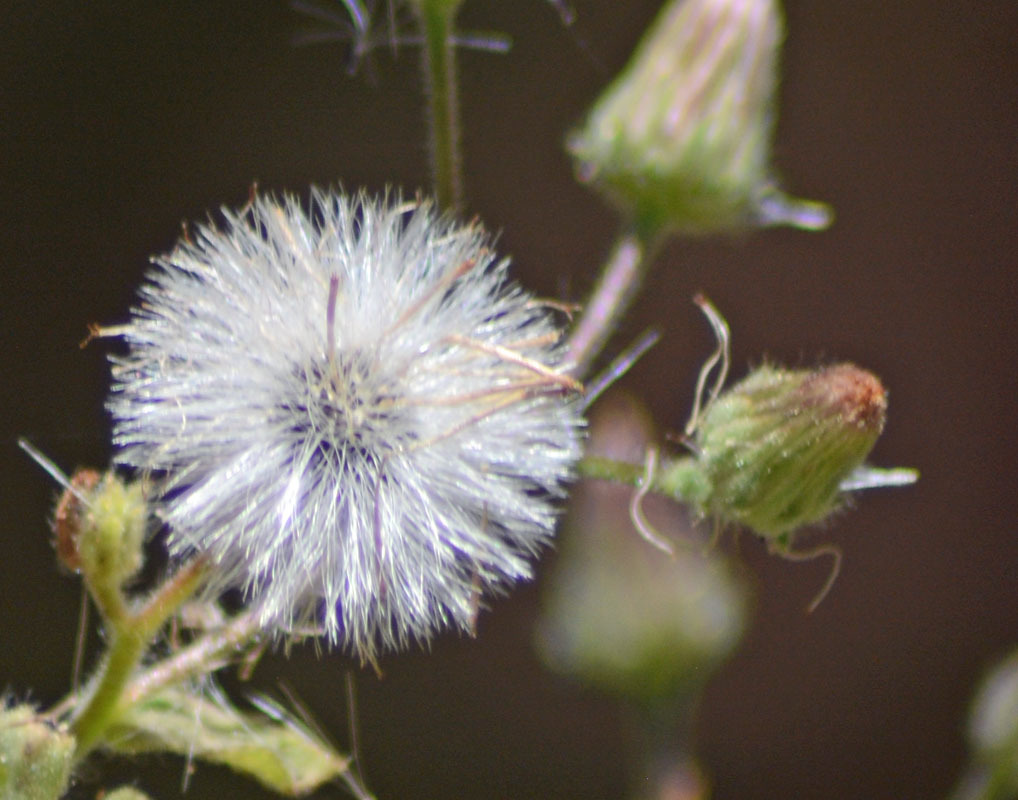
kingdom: Plantae
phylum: Tracheophyta
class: Magnoliopsida
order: Asterales
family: Asteraceae
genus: Pseudoconyza
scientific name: Pseudoconyza viscosa
